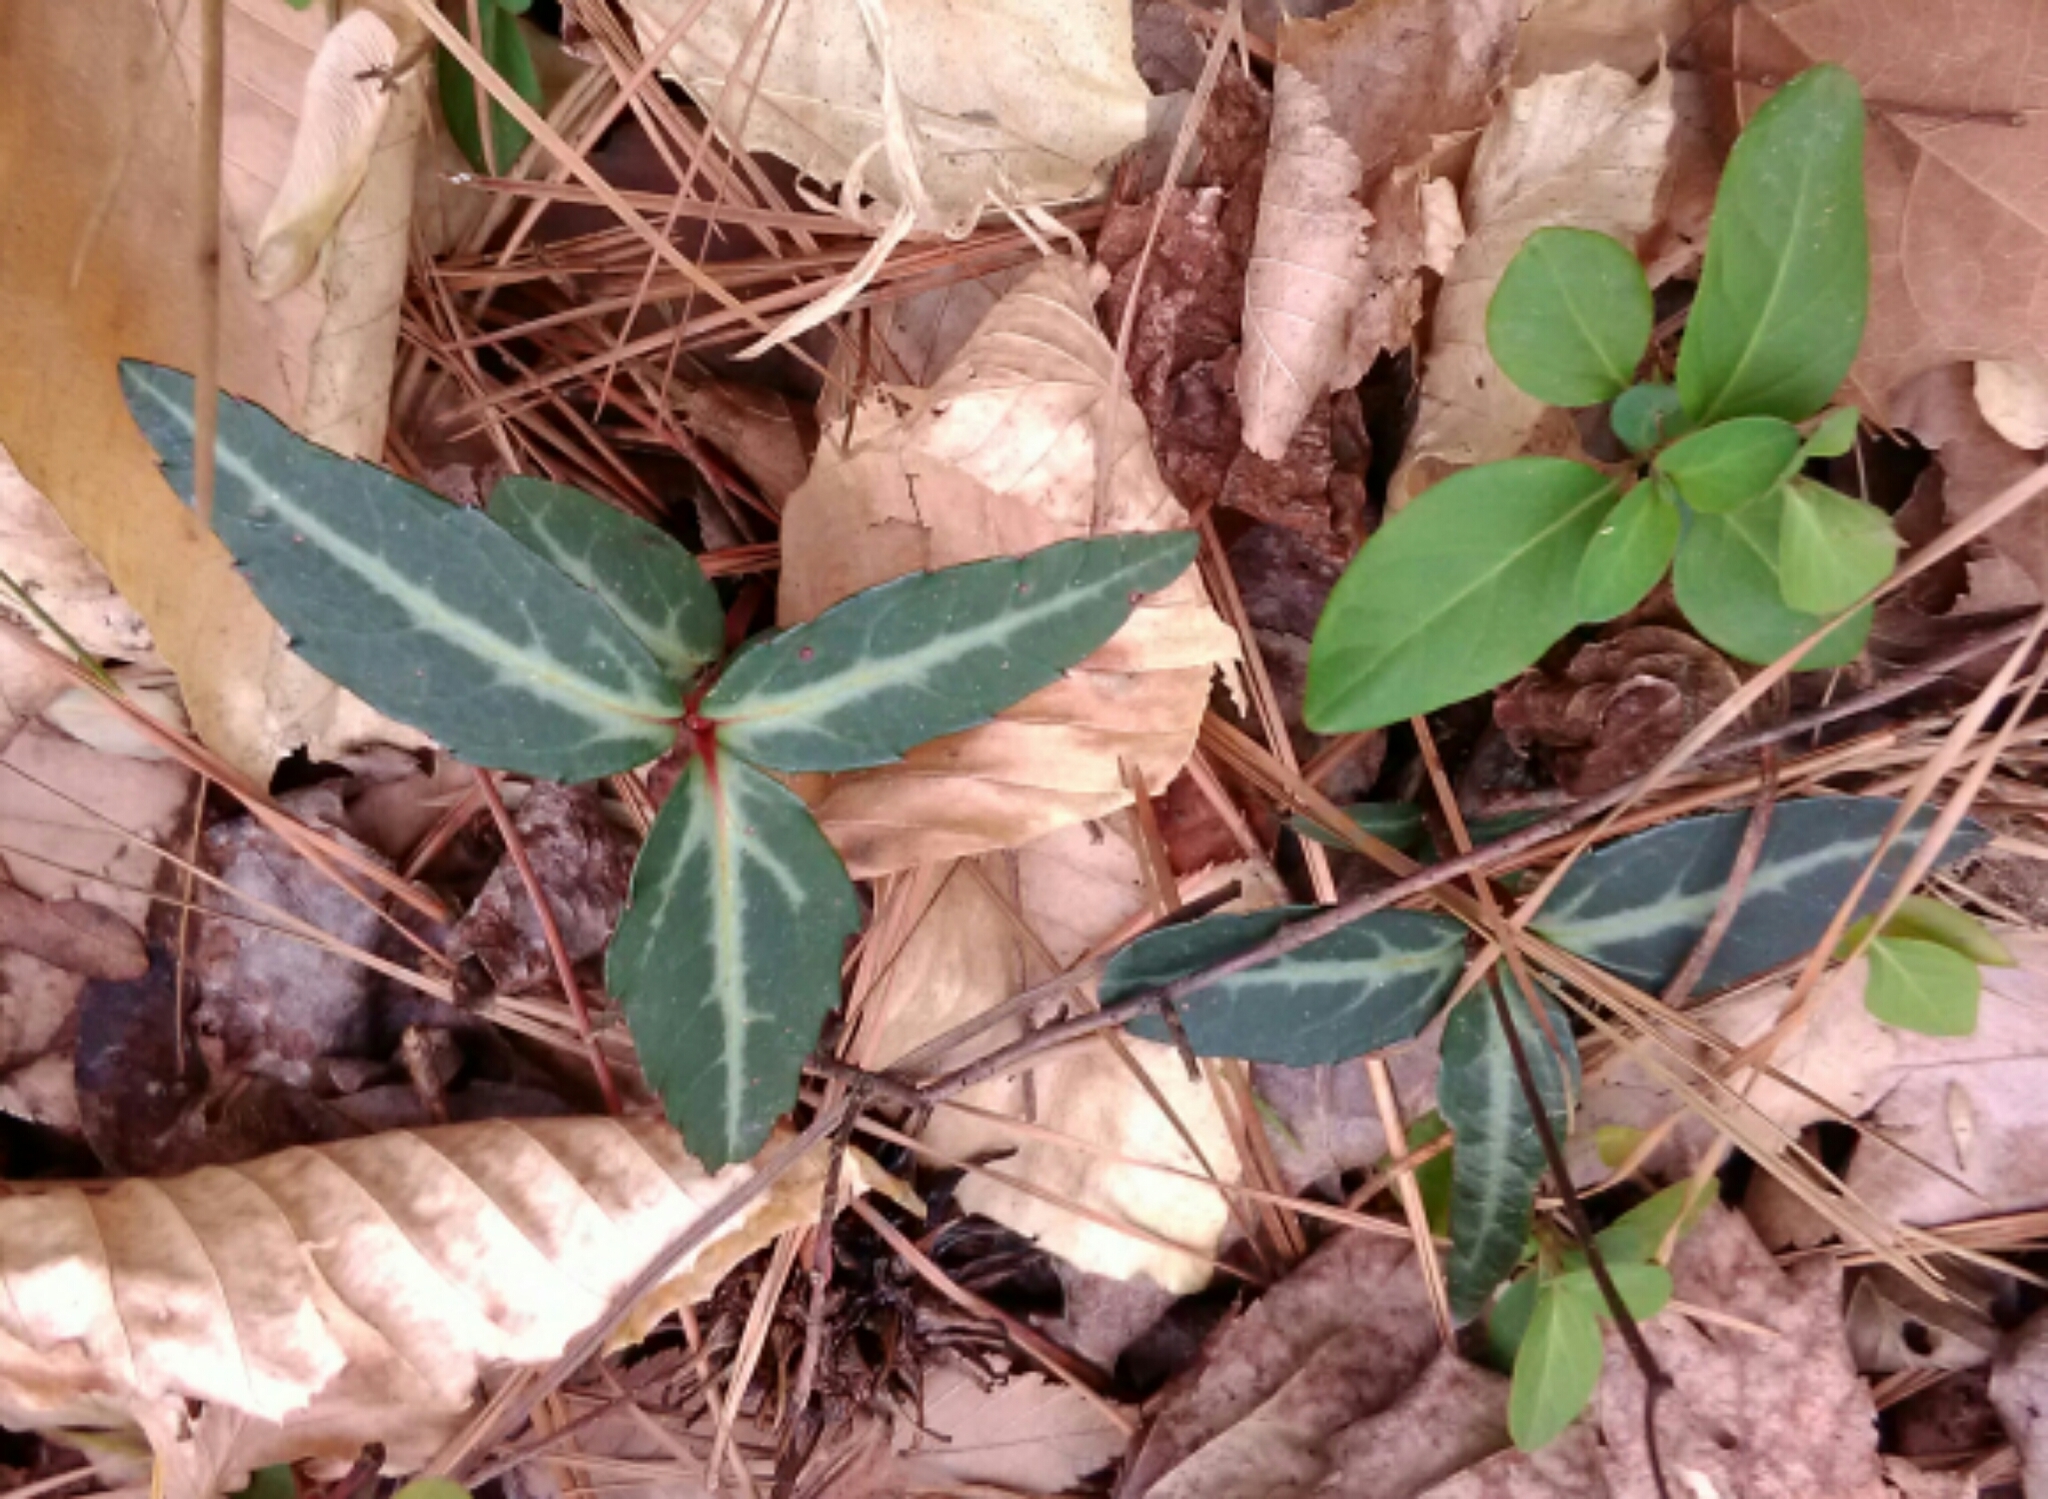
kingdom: Plantae
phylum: Tracheophyta
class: Magnoliopsida
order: Ericales
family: Ericaceae
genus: Chimaphila
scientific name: Chimaphila maculata
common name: Spotted pipsissewa
